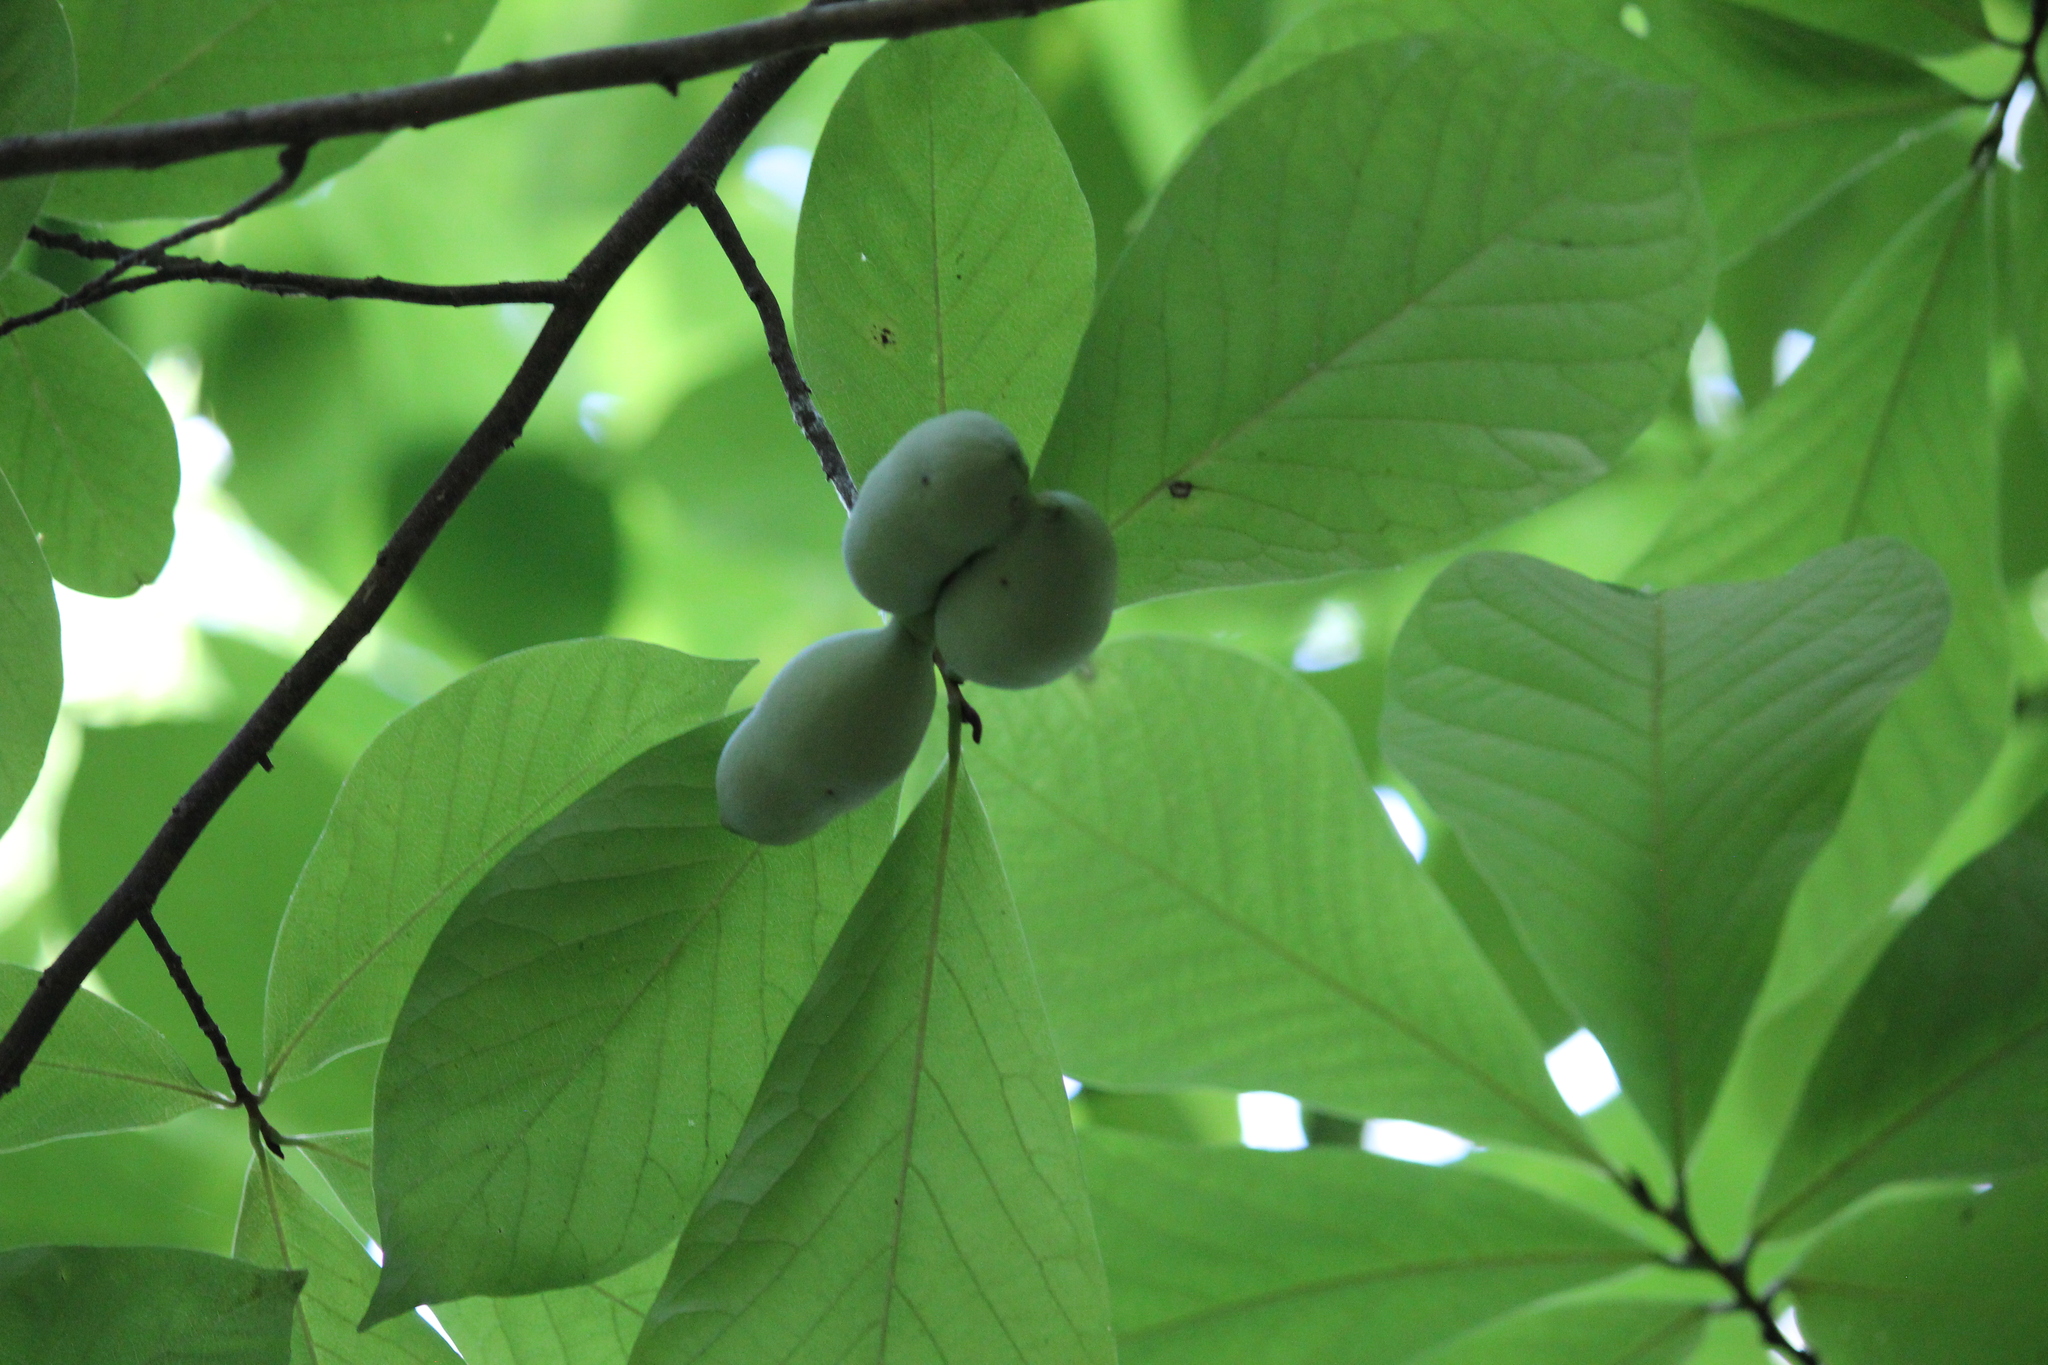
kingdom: Plantae
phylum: Tracheophyta
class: Magnoliopsida
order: Magnoliales
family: Annonaceae
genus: Asimina
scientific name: Asimina triloba
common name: Dog-banana
